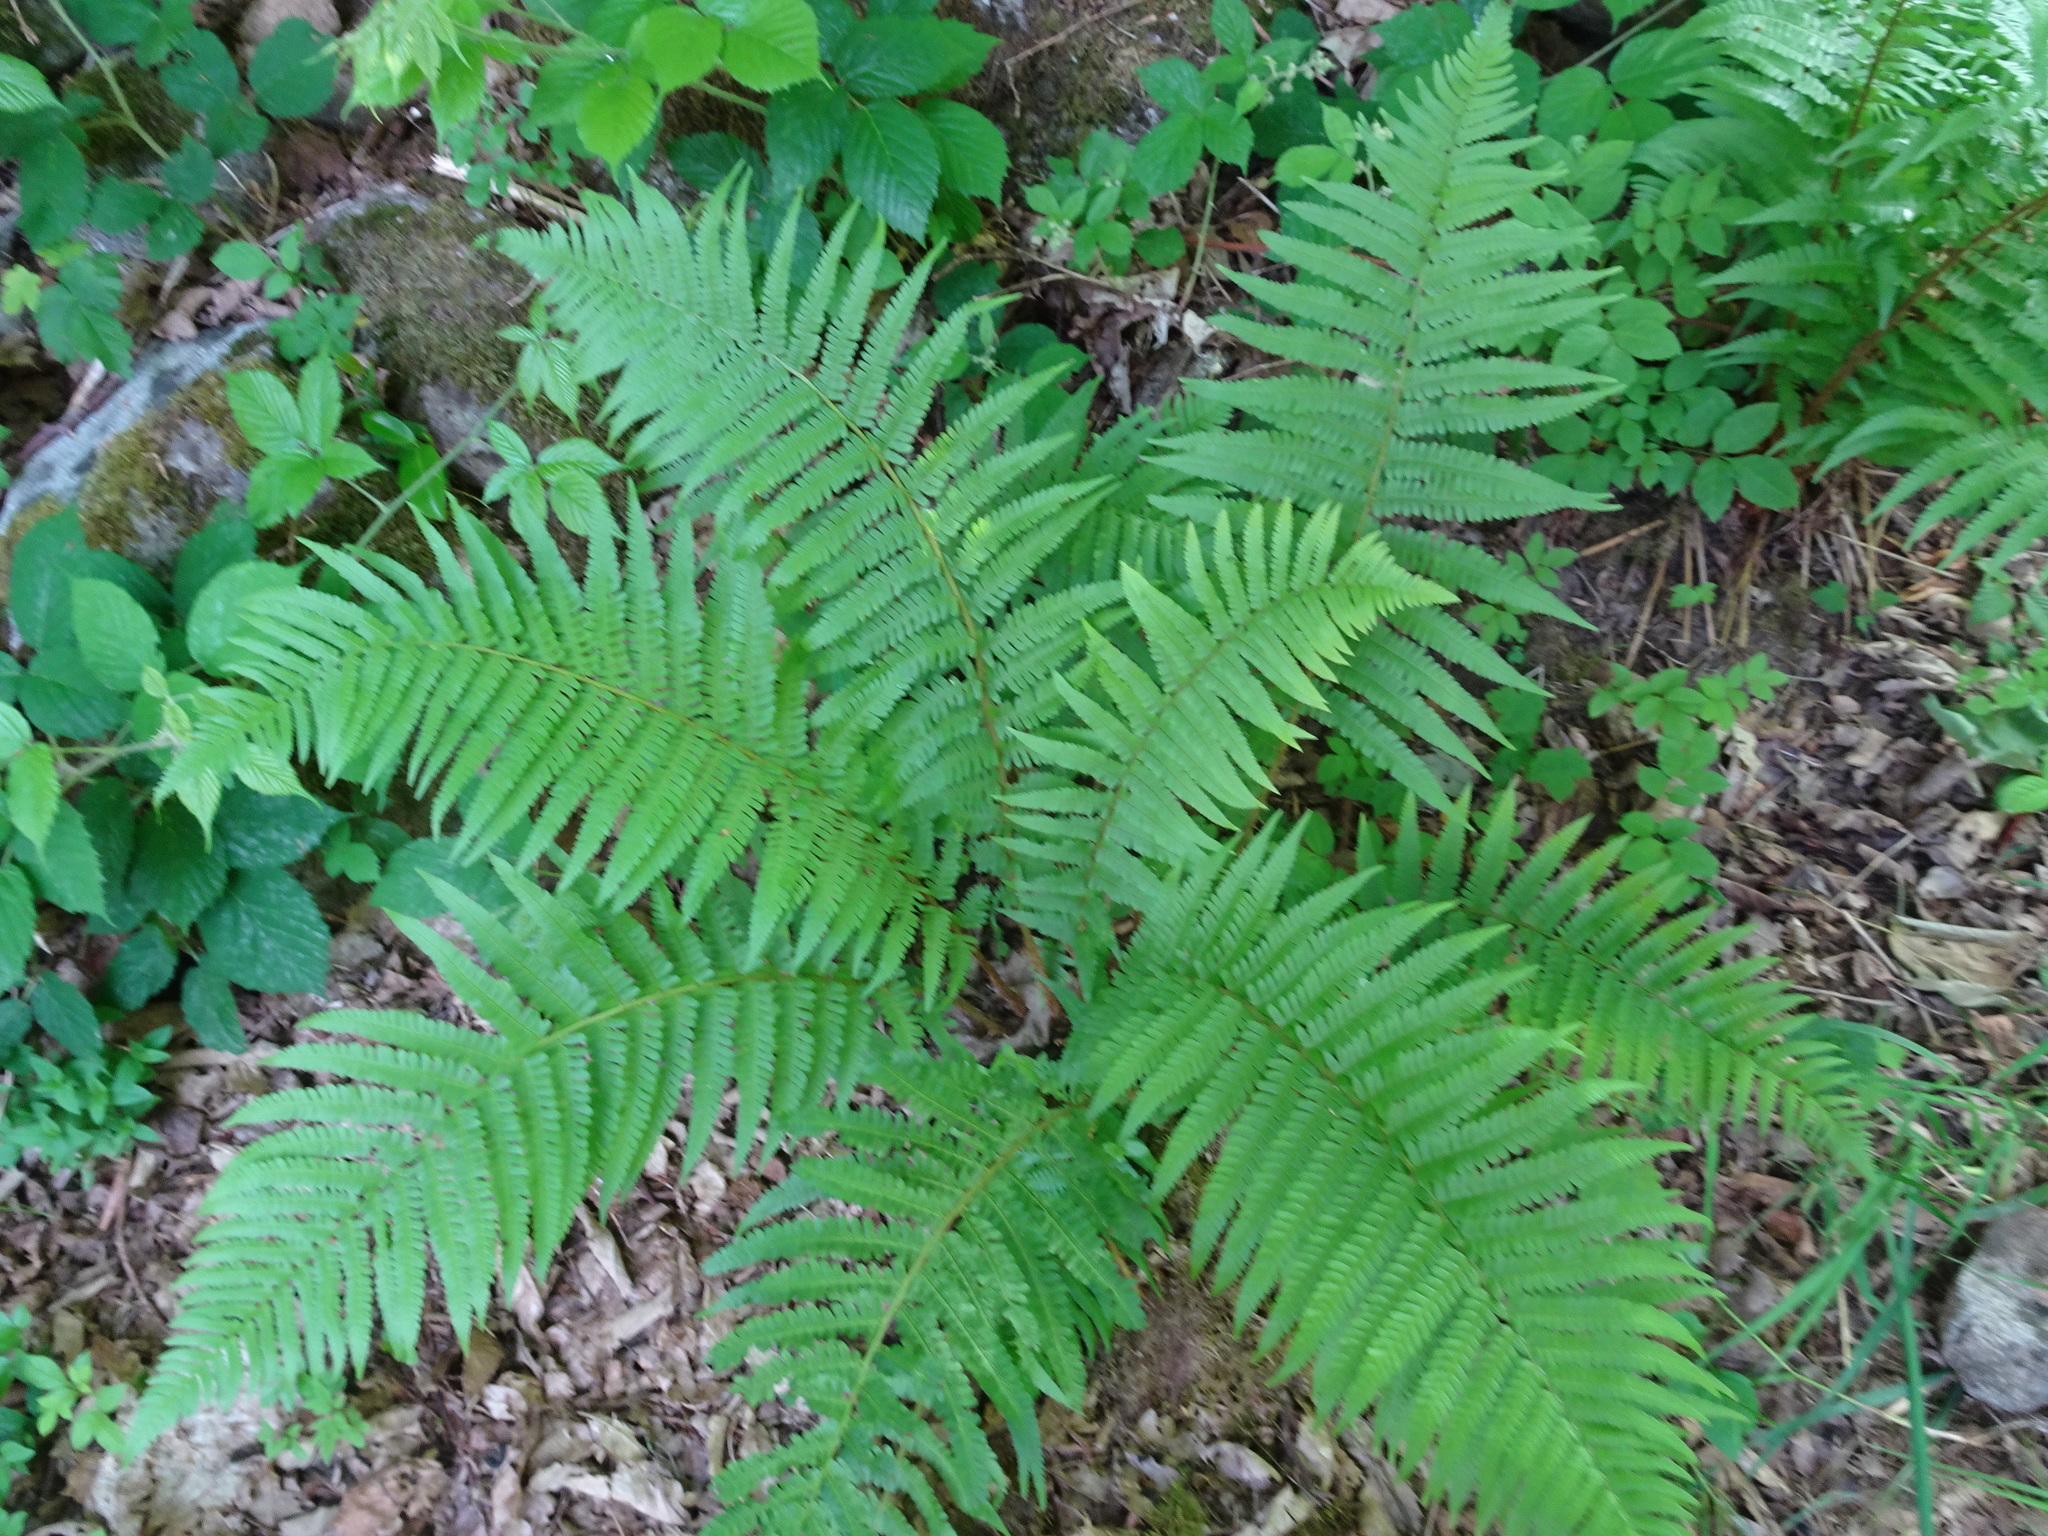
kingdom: Plantae
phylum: Tracheophyta
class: Polypodiopsida
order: Polypodiales
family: Dryopteridaceae
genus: Dryopteris
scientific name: Dryopteris filix-mas
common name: Male fern
